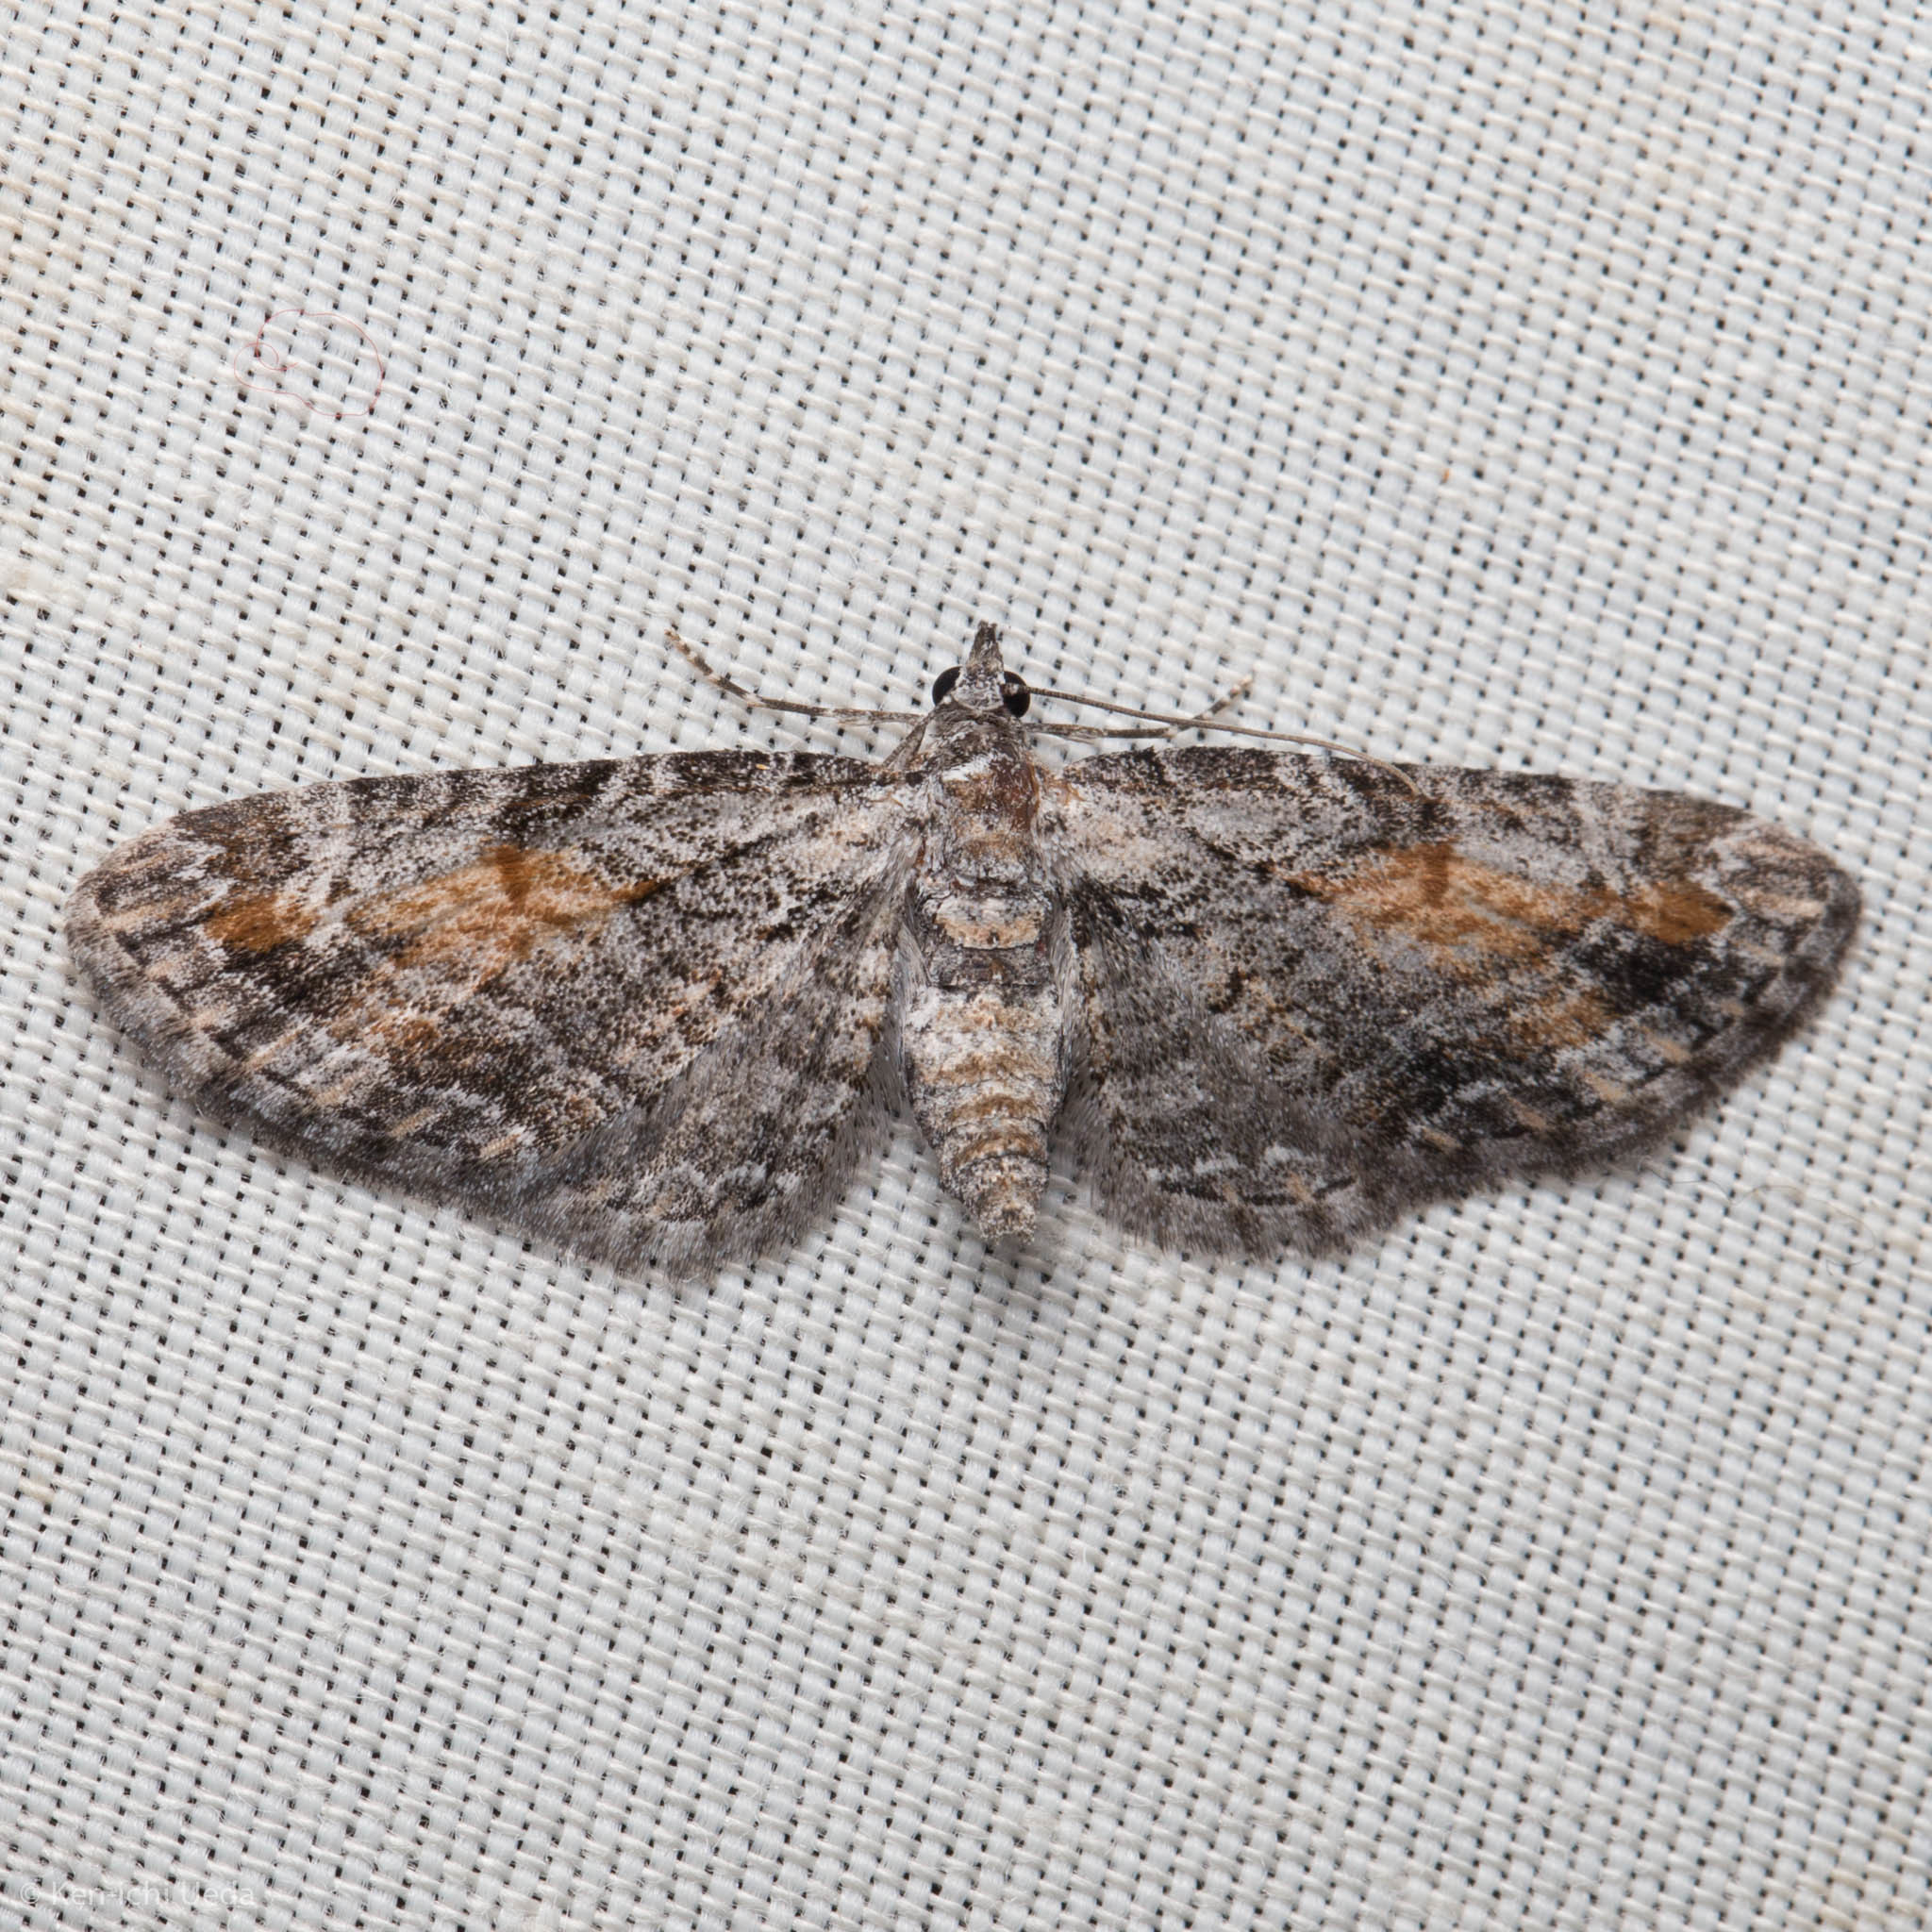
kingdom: Animalia
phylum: Arthropoda
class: Insecta
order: Lepidoptera
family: Geometridae
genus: Eupithecia
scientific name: Eupithecia graefii
